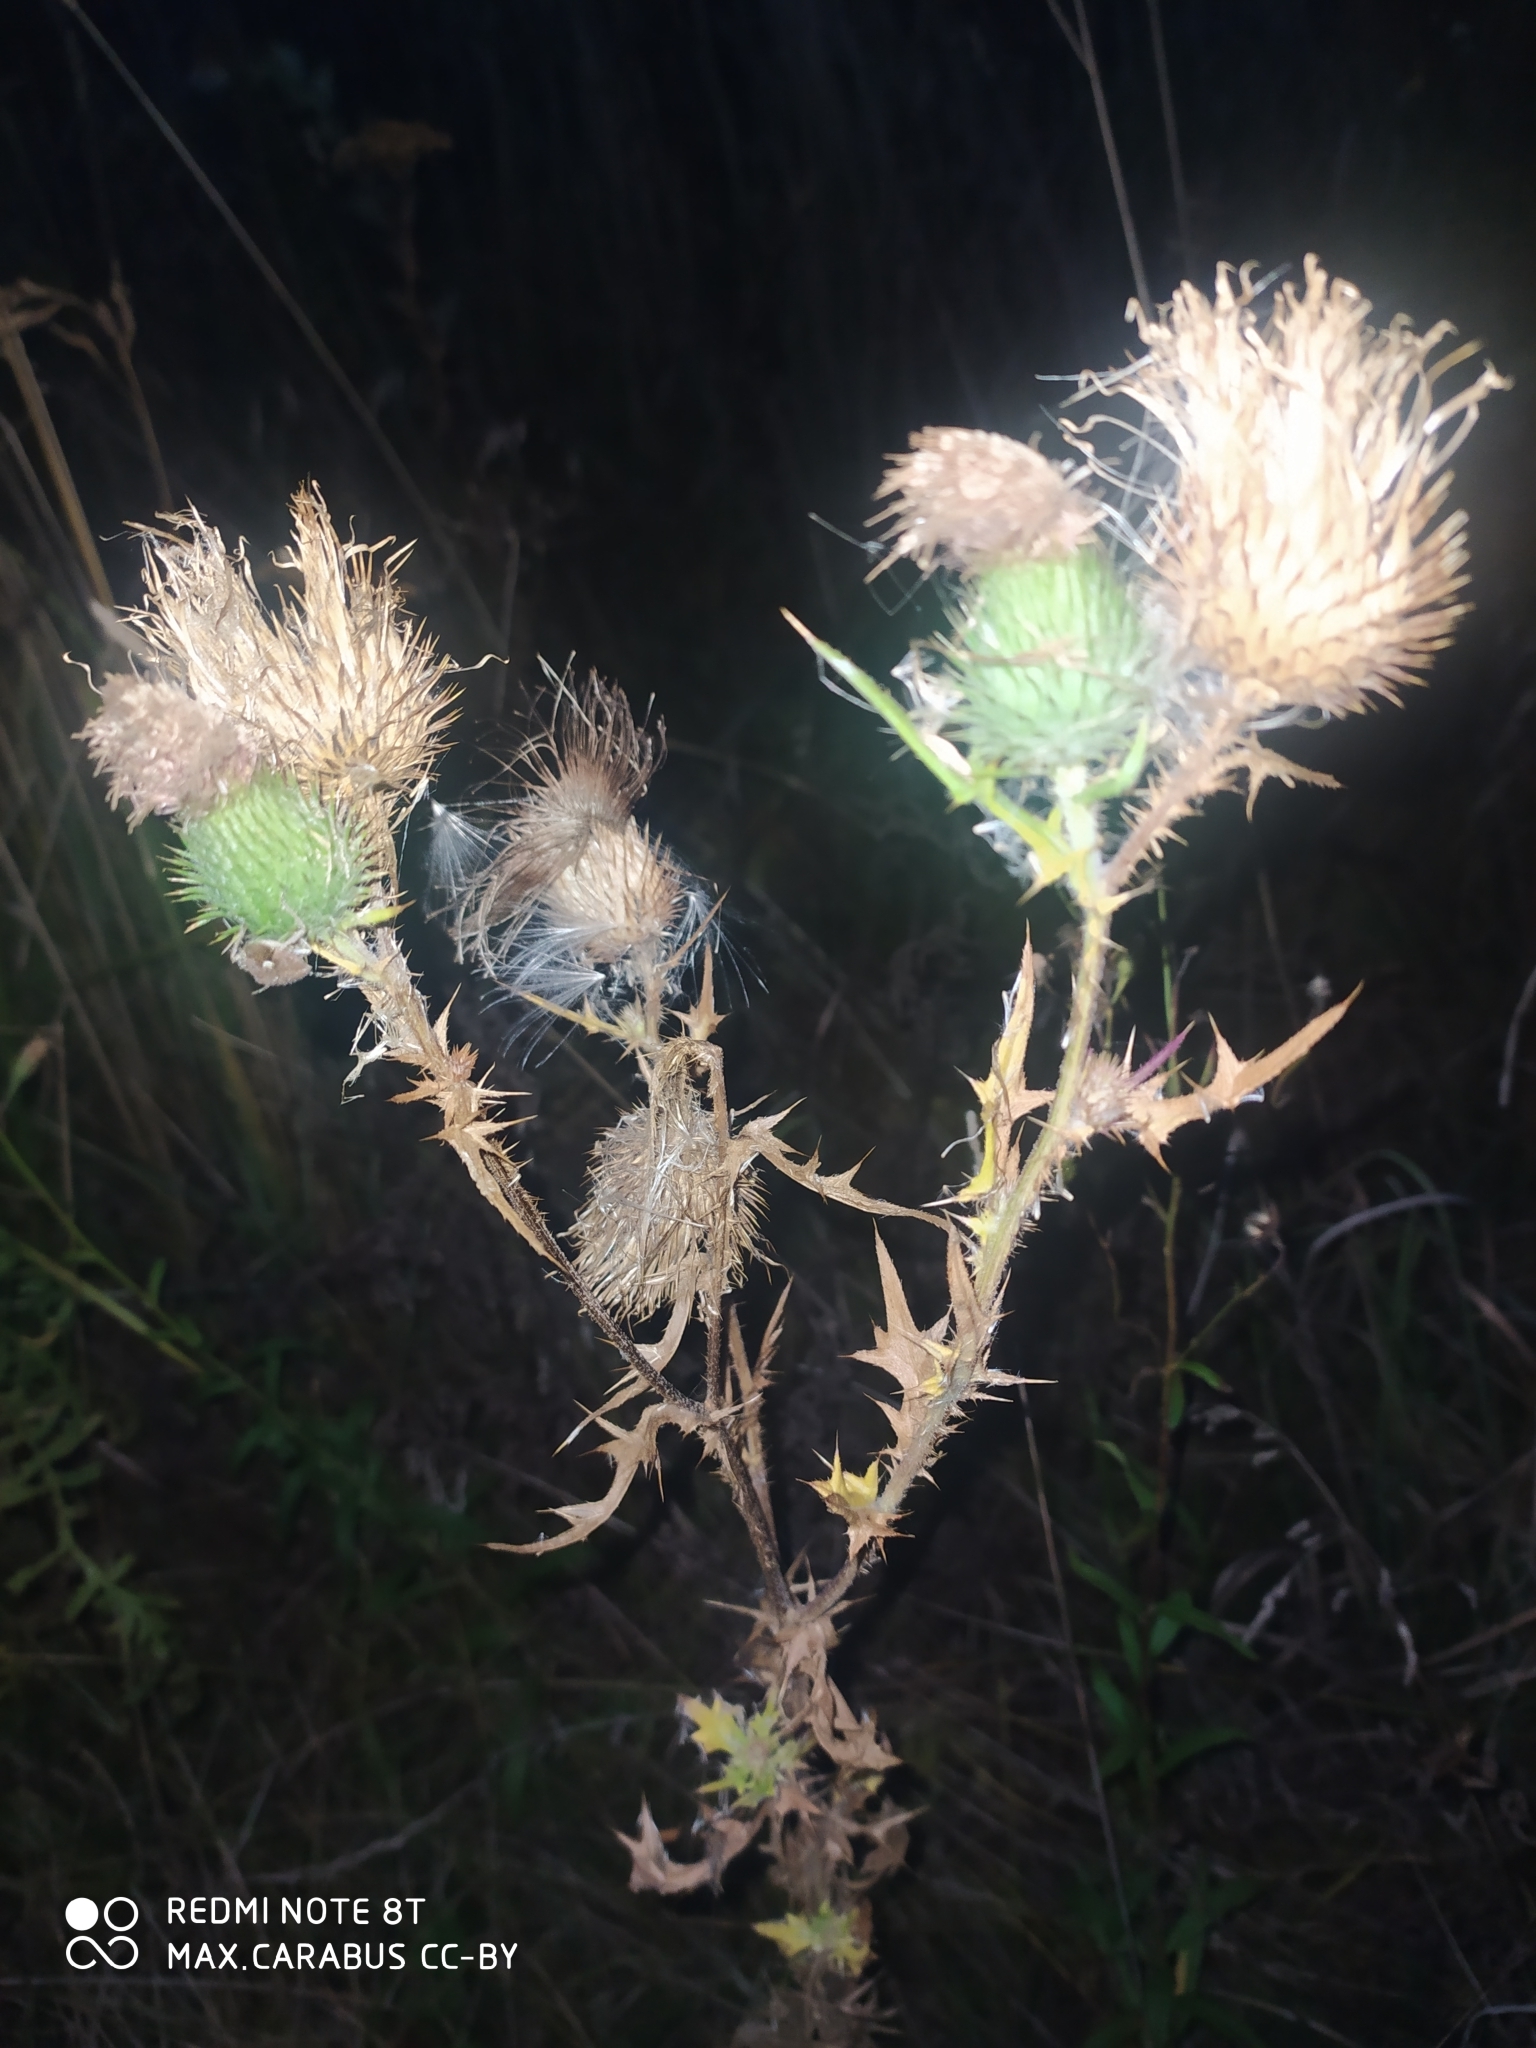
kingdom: Plantae
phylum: Tracheophyta
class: Magnoliopsida
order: Asterales
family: Asteraceae
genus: Cirsium
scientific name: Cirsium vulgare
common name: Bull thistle
